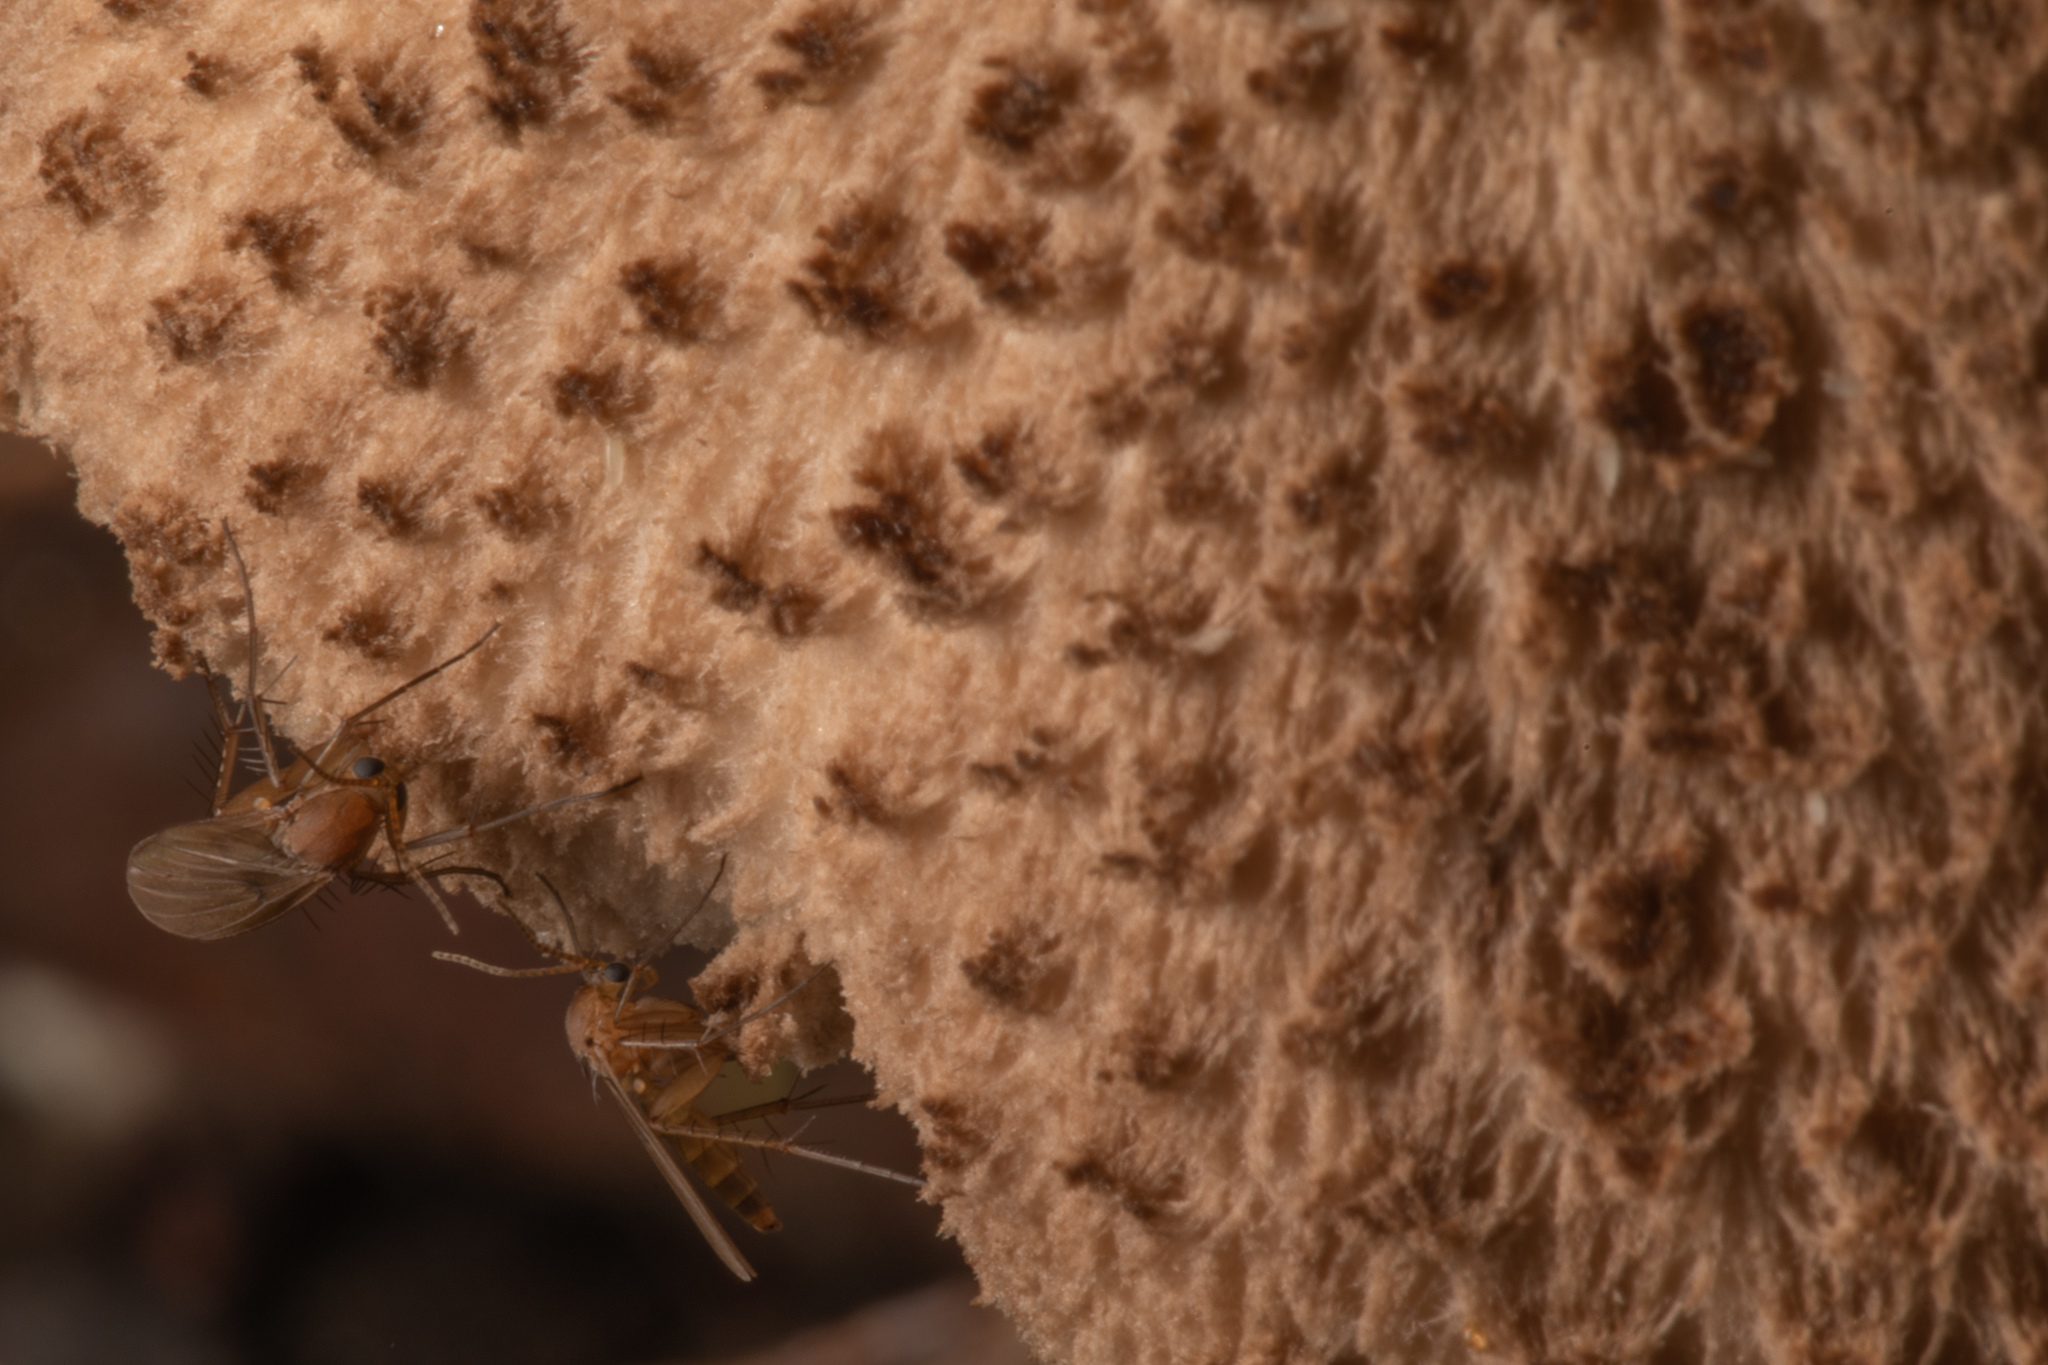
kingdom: Animalia
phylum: Arthropoda
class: Insecta
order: Diptera
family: Mycetophilidae
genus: Mycetophila
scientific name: Mycetophila fagi
